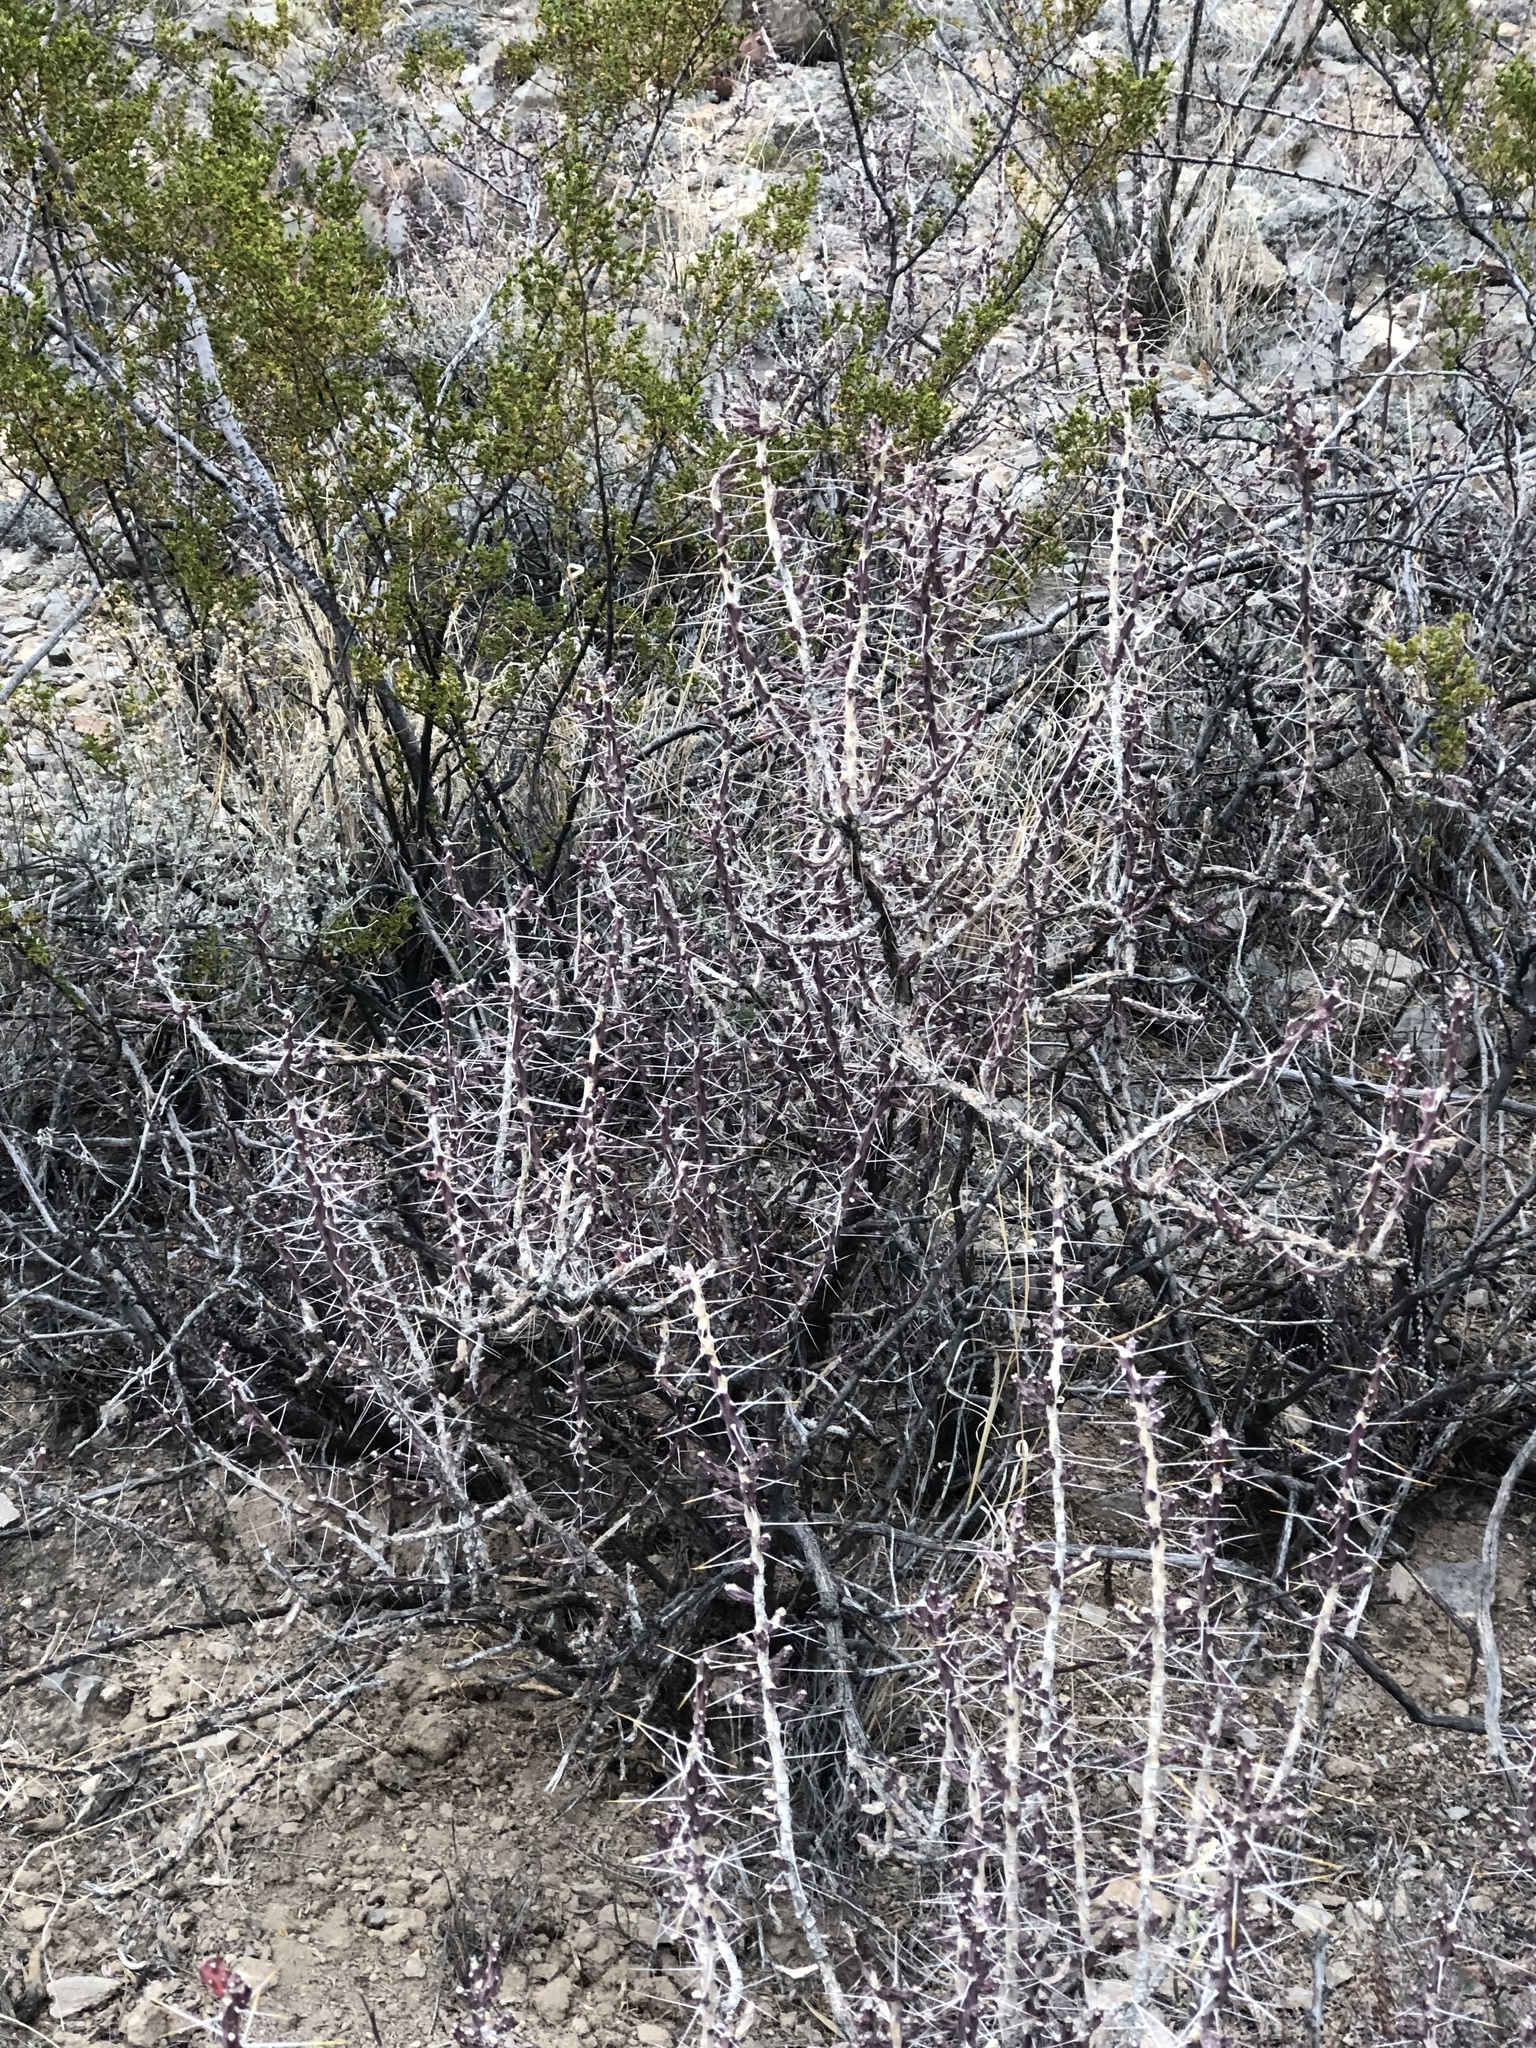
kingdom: Plantae
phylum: Tracheophyta
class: Magnoliopsida
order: Caryophyllales
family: Cactaceae
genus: Cylindropuntia
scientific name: Cylindropuntia leptocaulis
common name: Christmas cactus
